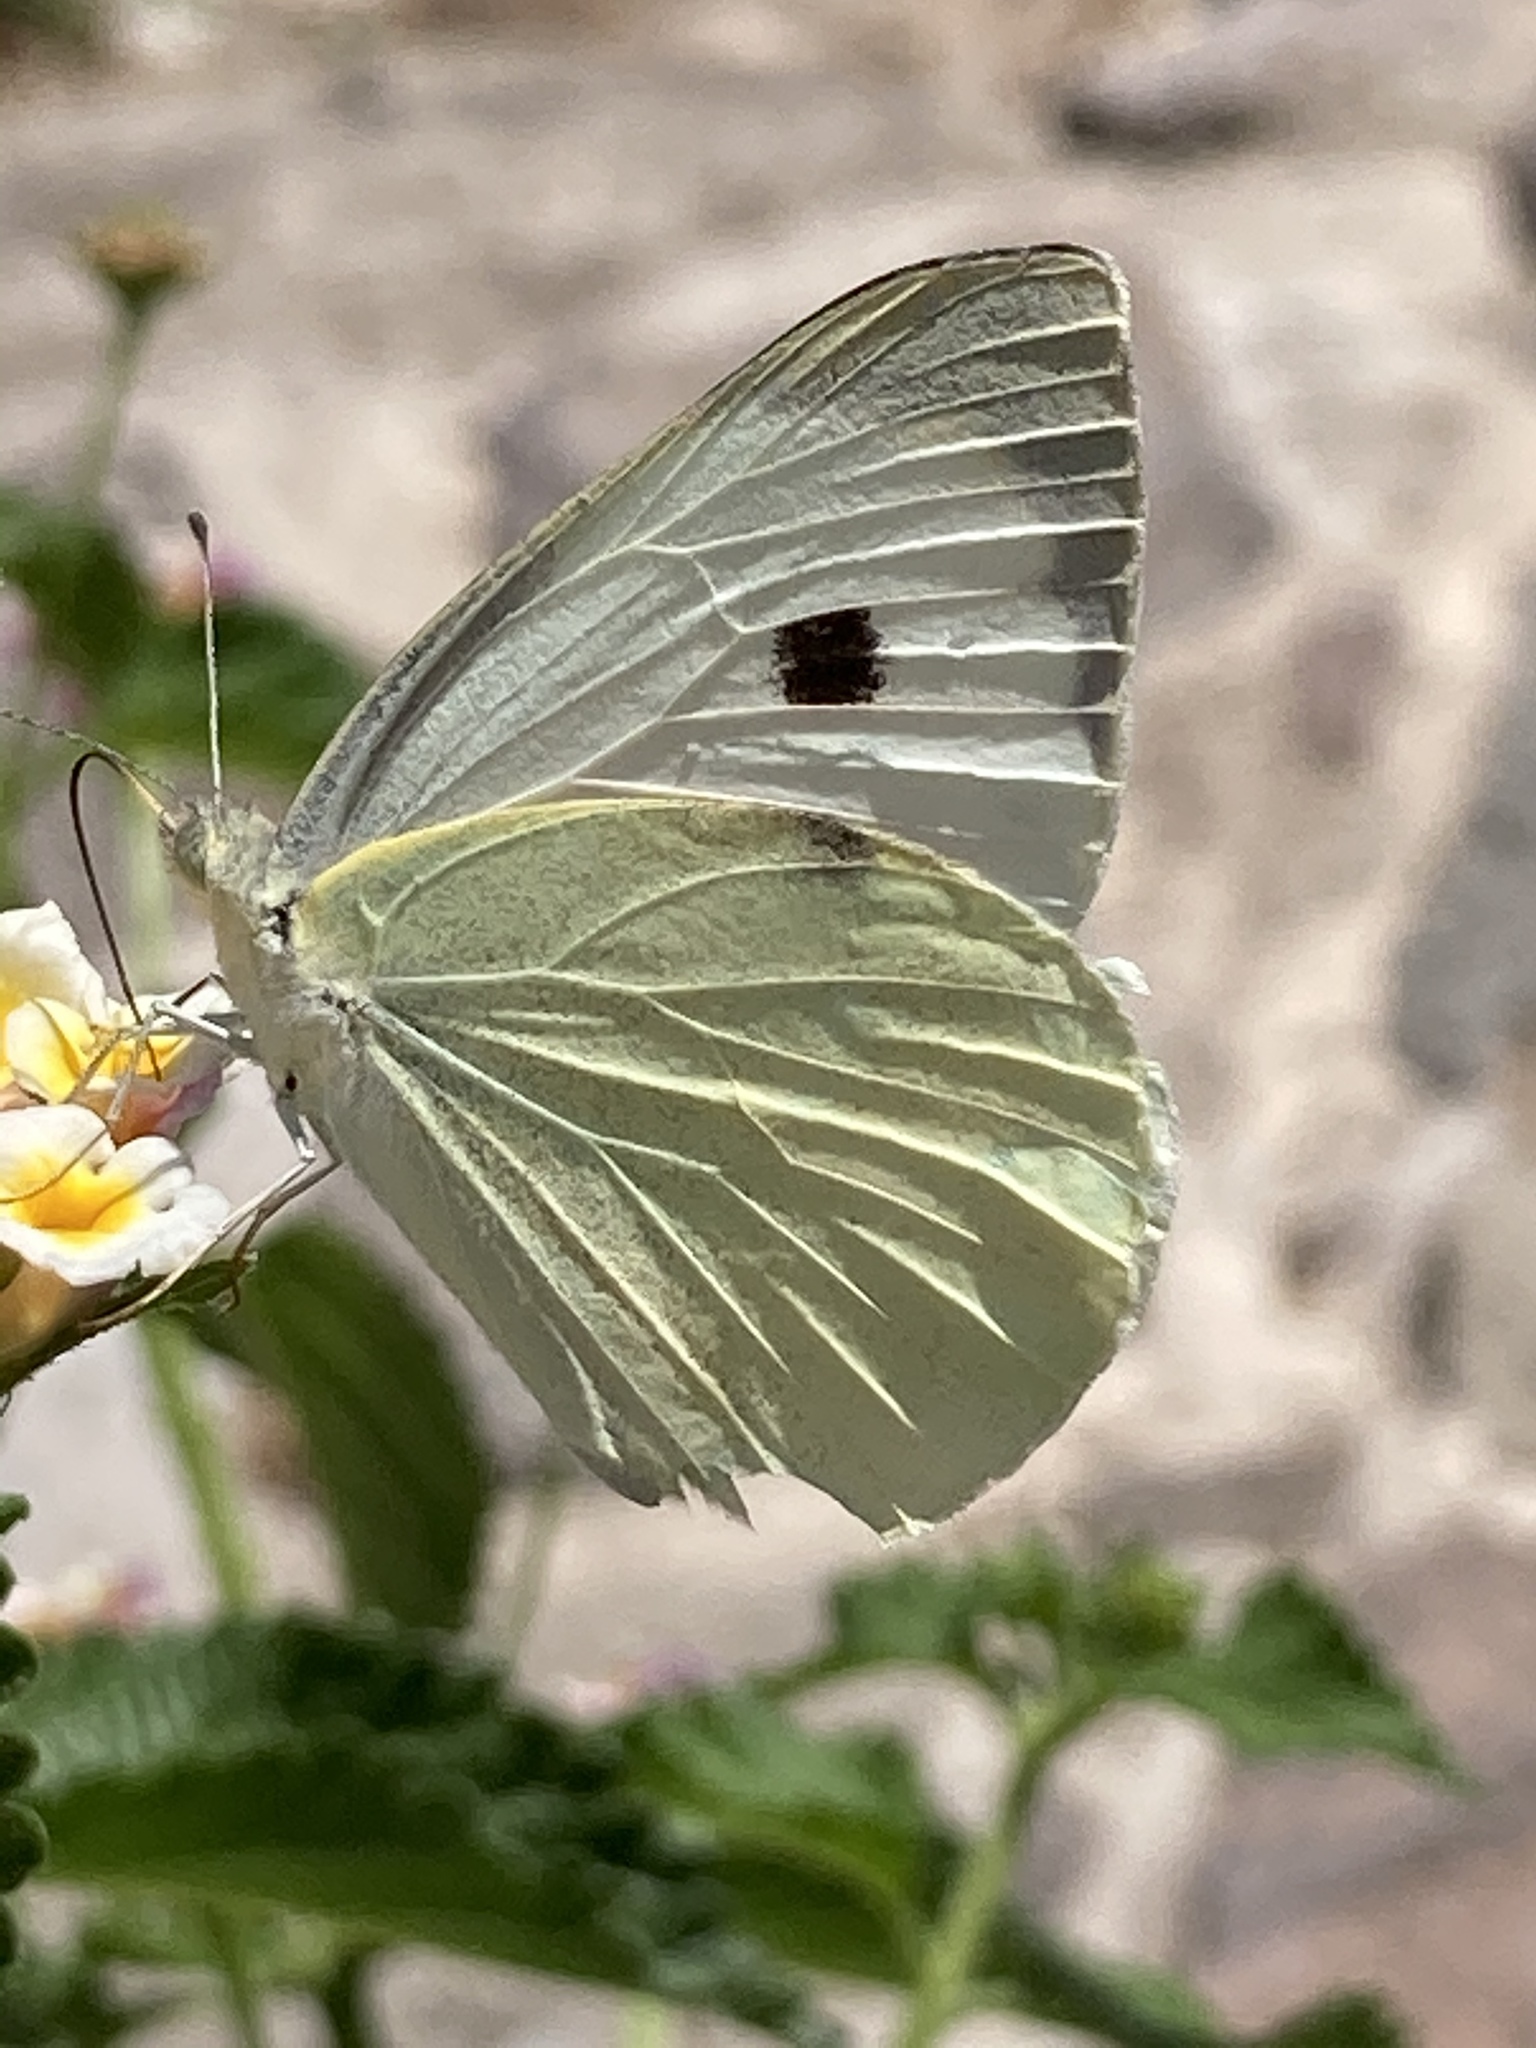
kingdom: Animalia
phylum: Arthropoda
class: Insecta
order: Lepidoptera
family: Pieridae
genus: Pieris
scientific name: Pieris brassicae
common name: Large white
